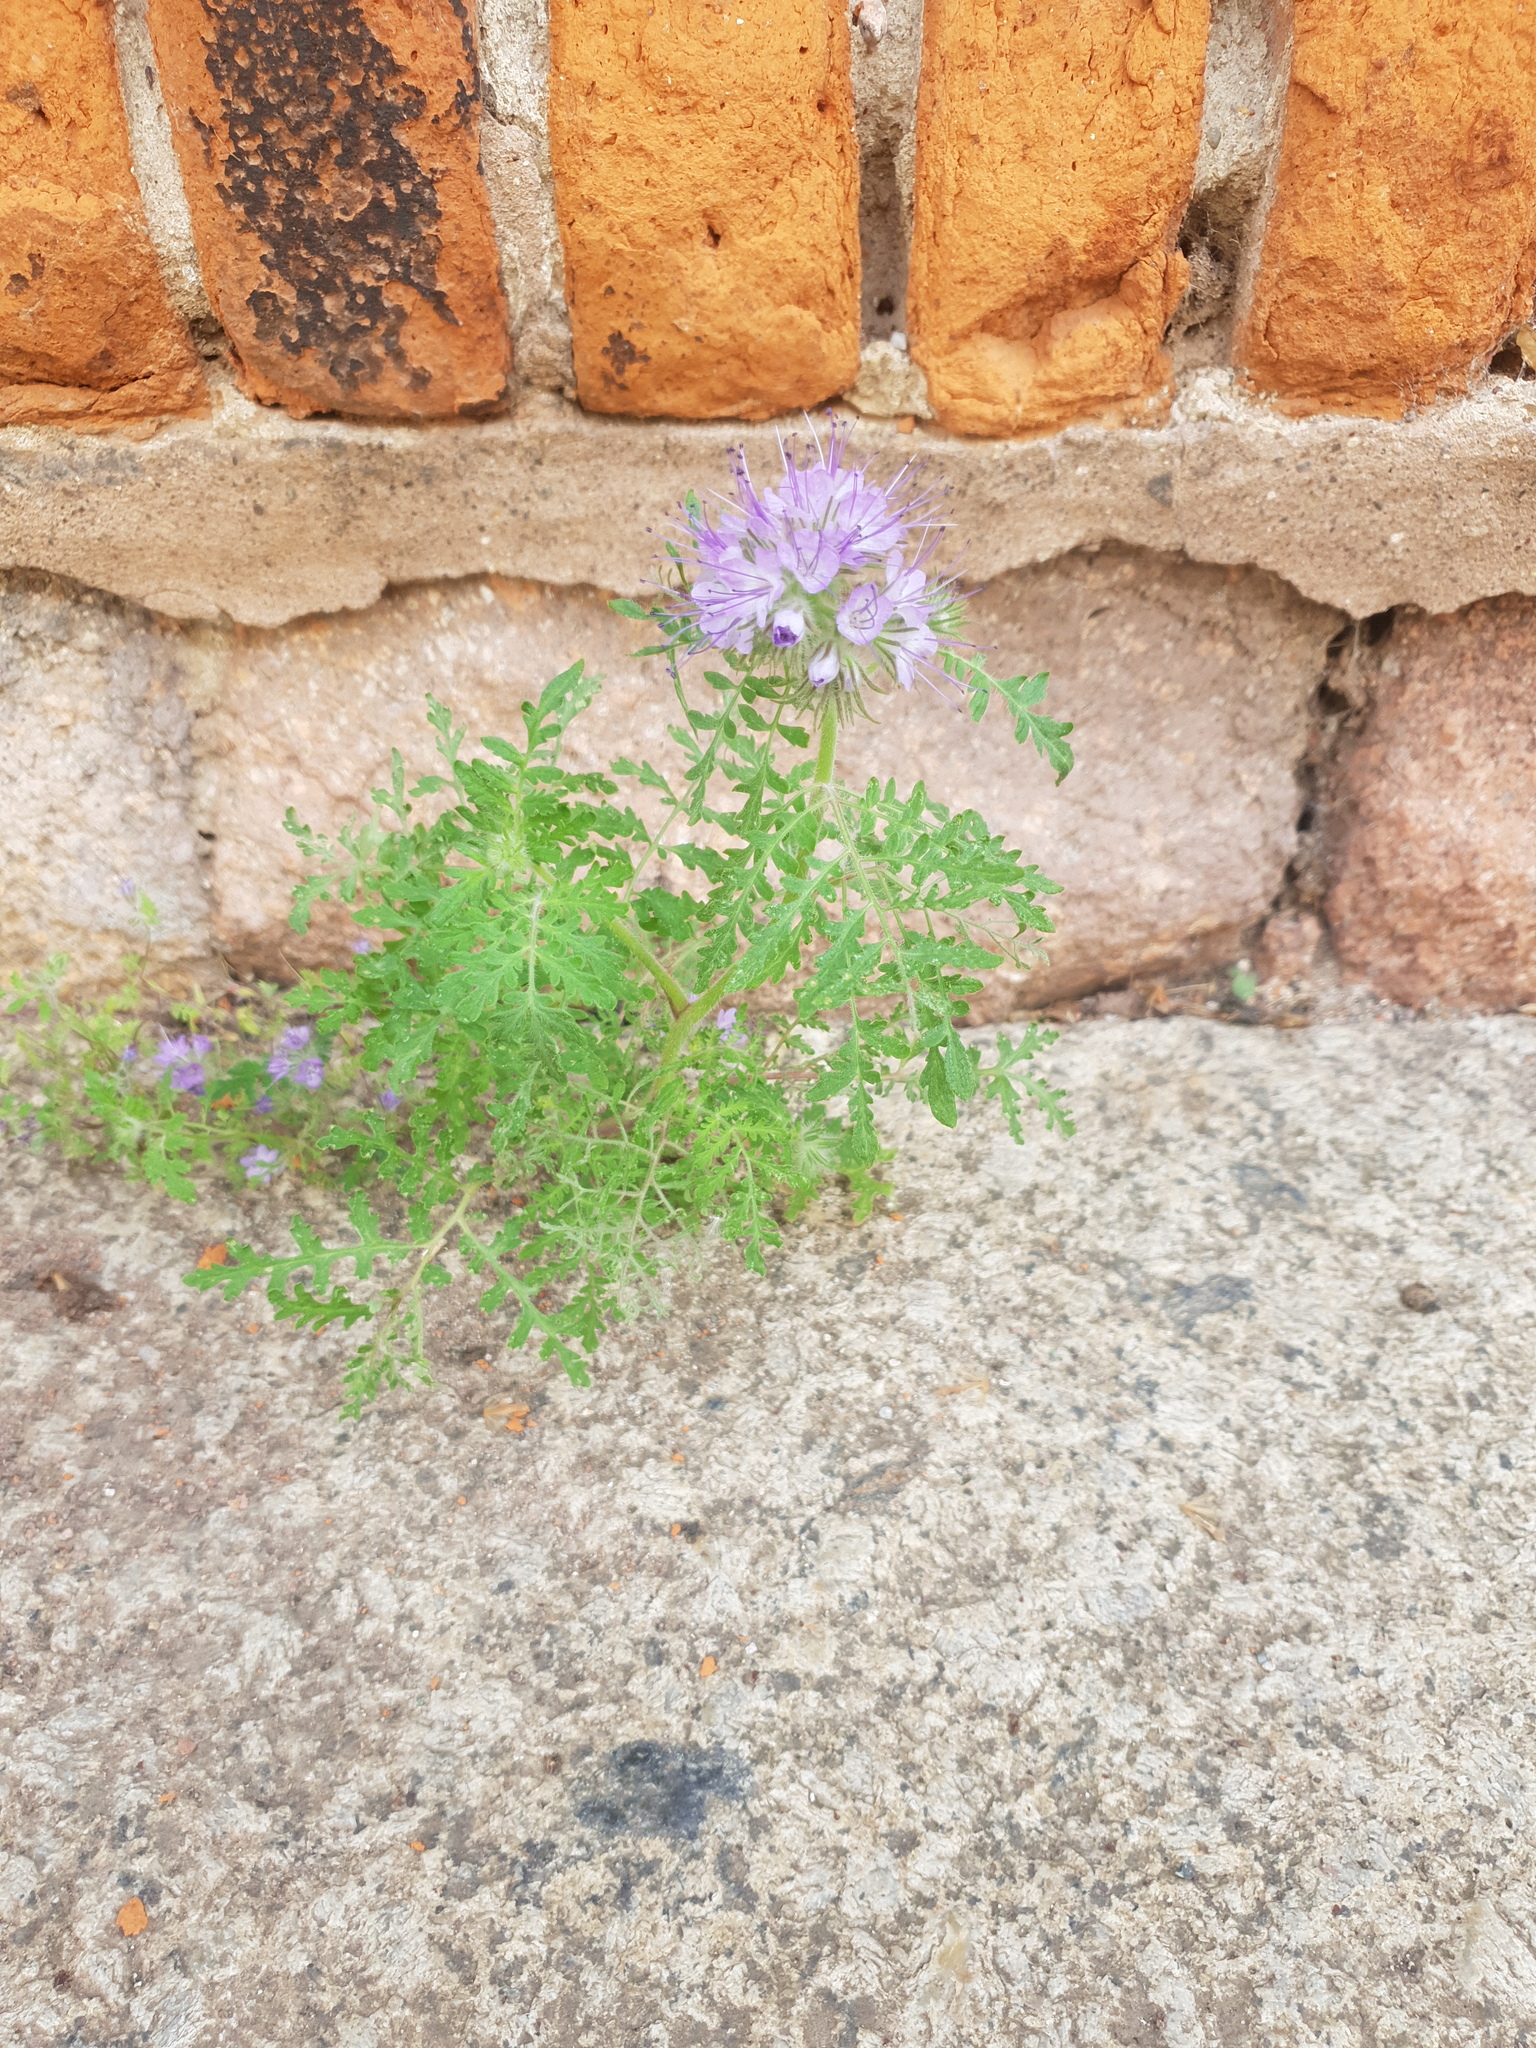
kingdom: Plantae
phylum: Tracheophyta
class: Magnoliopsida
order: Boraginales
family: Hydrophyllaceae
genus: Phacelia
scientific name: Phacelia tanacetifolia
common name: Phacelia
